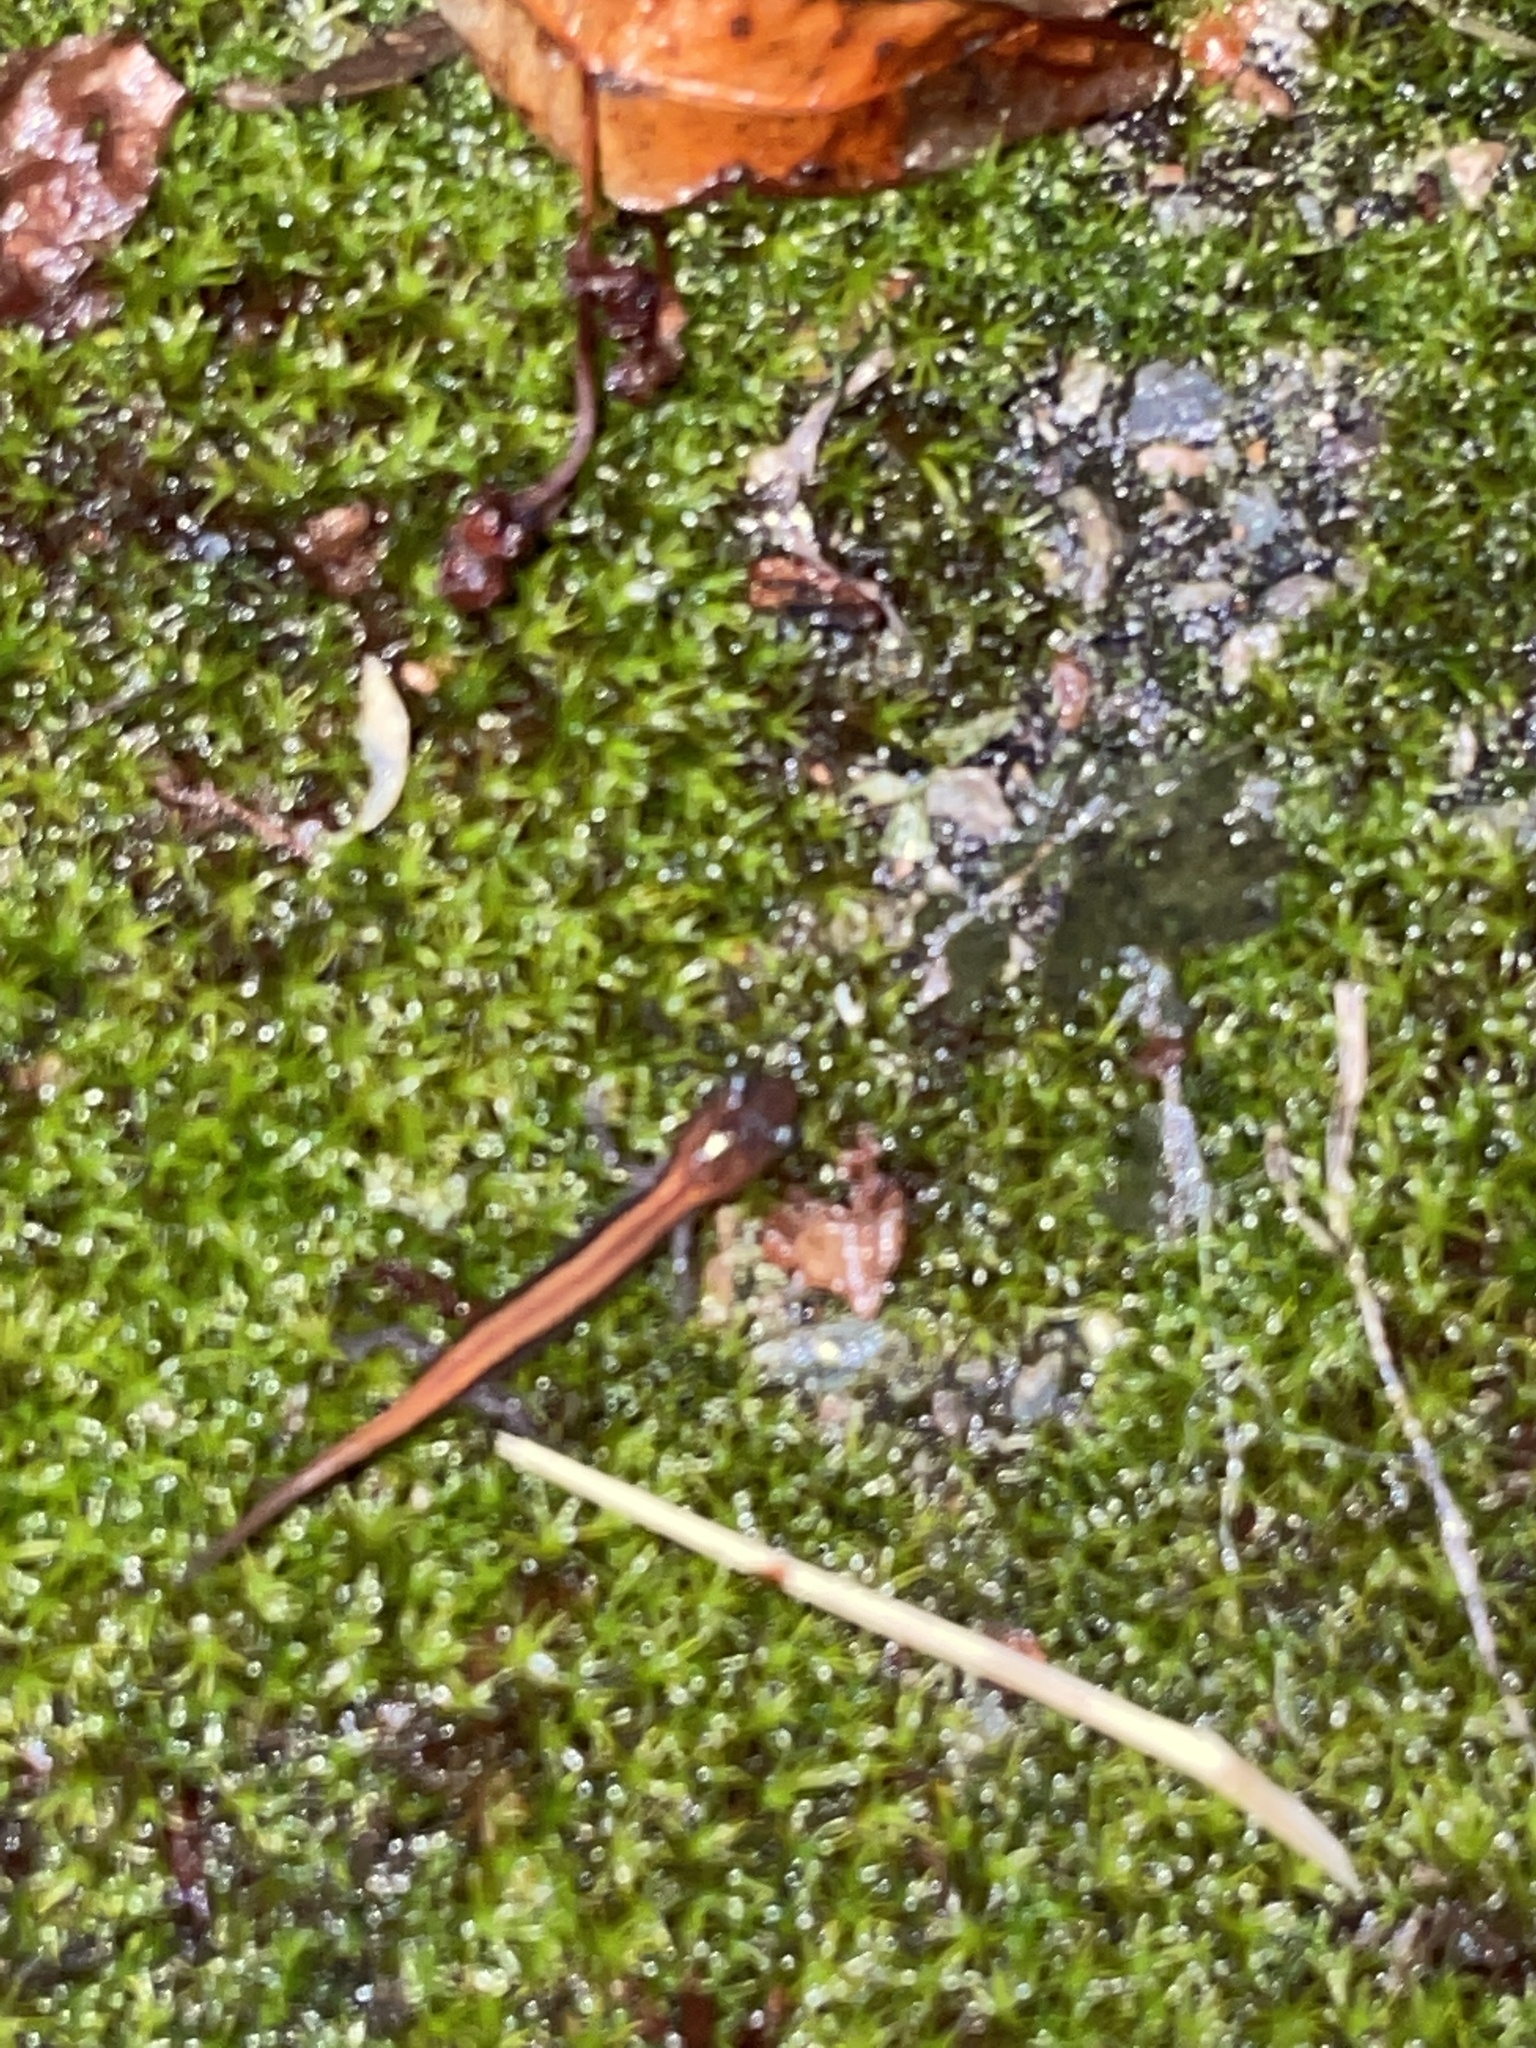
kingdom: Animalia
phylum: Chordata
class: Amphibia
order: Caudata
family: Plethodontidae
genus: Plethodon
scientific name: Plethodon cinereus
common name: Redback salamander
